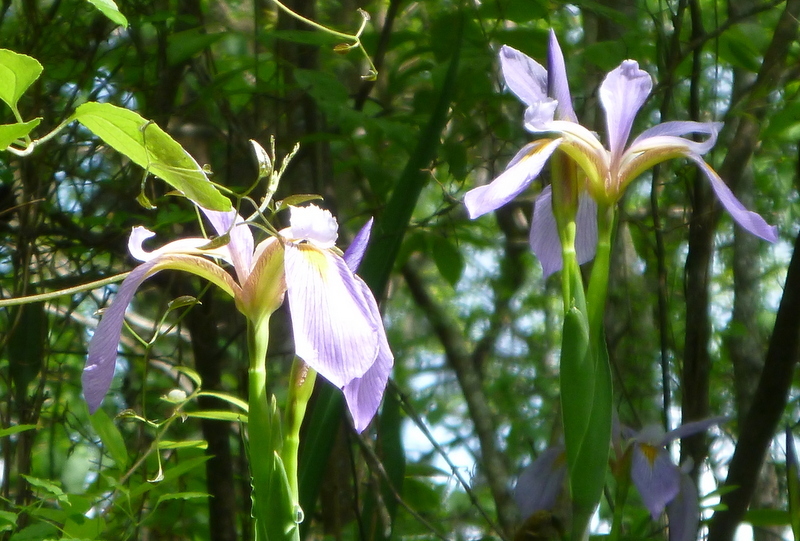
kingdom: Plantae
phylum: Tracheophyta
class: Liliopsida
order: Asparagales
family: Iridaceae
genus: Iris
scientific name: Iris virginica
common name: Southern blue flag
